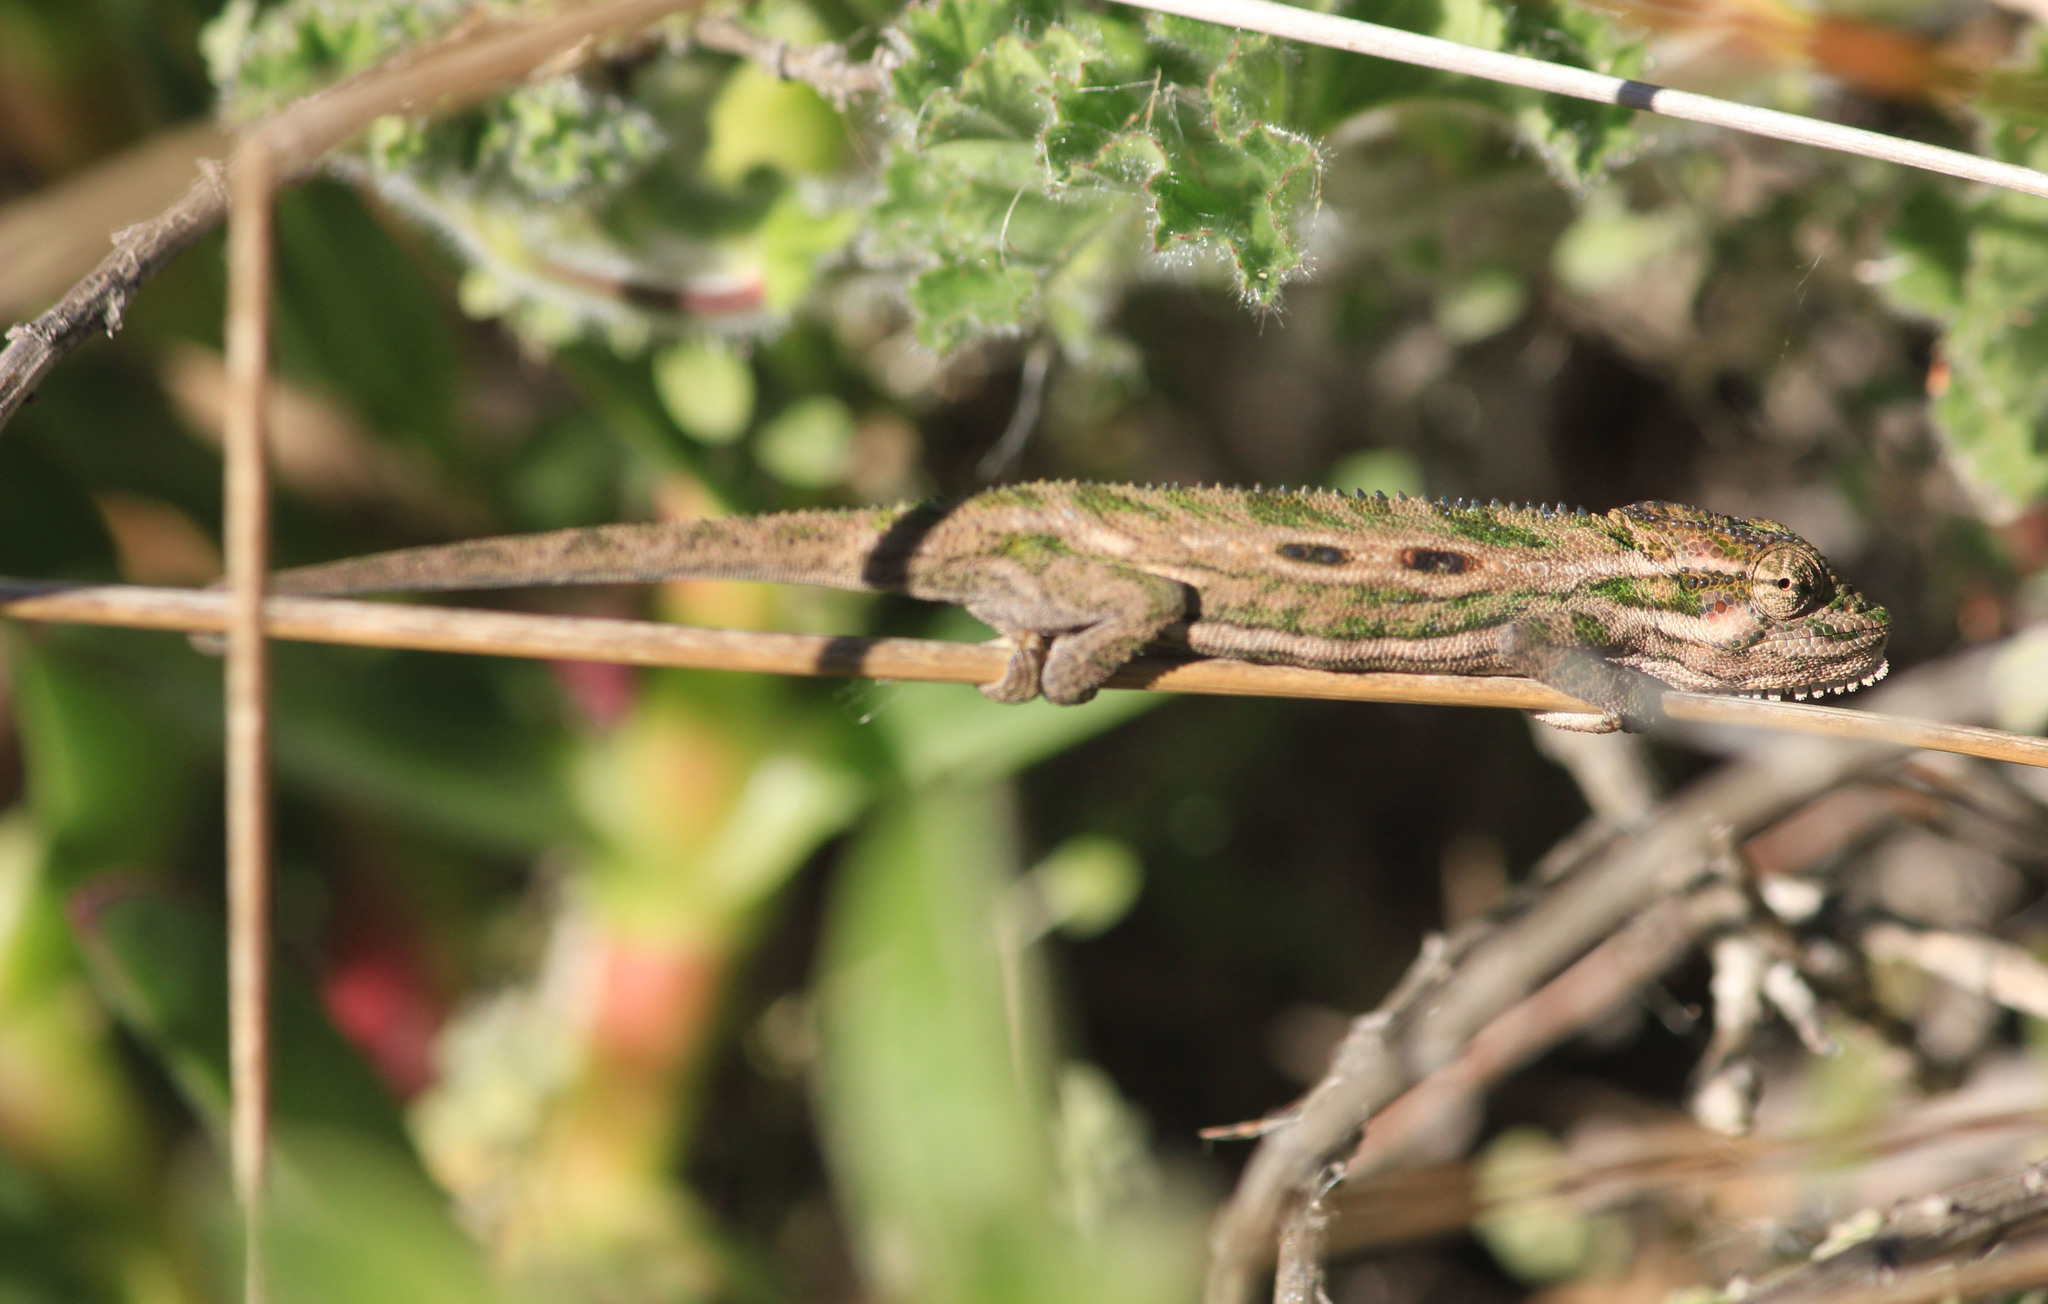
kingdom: Animalia
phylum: Chordata
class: Squamata
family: Chamaeleonidae
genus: Bradypodion
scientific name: Bradypodion pumilum
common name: Cape dwarf chameleon
